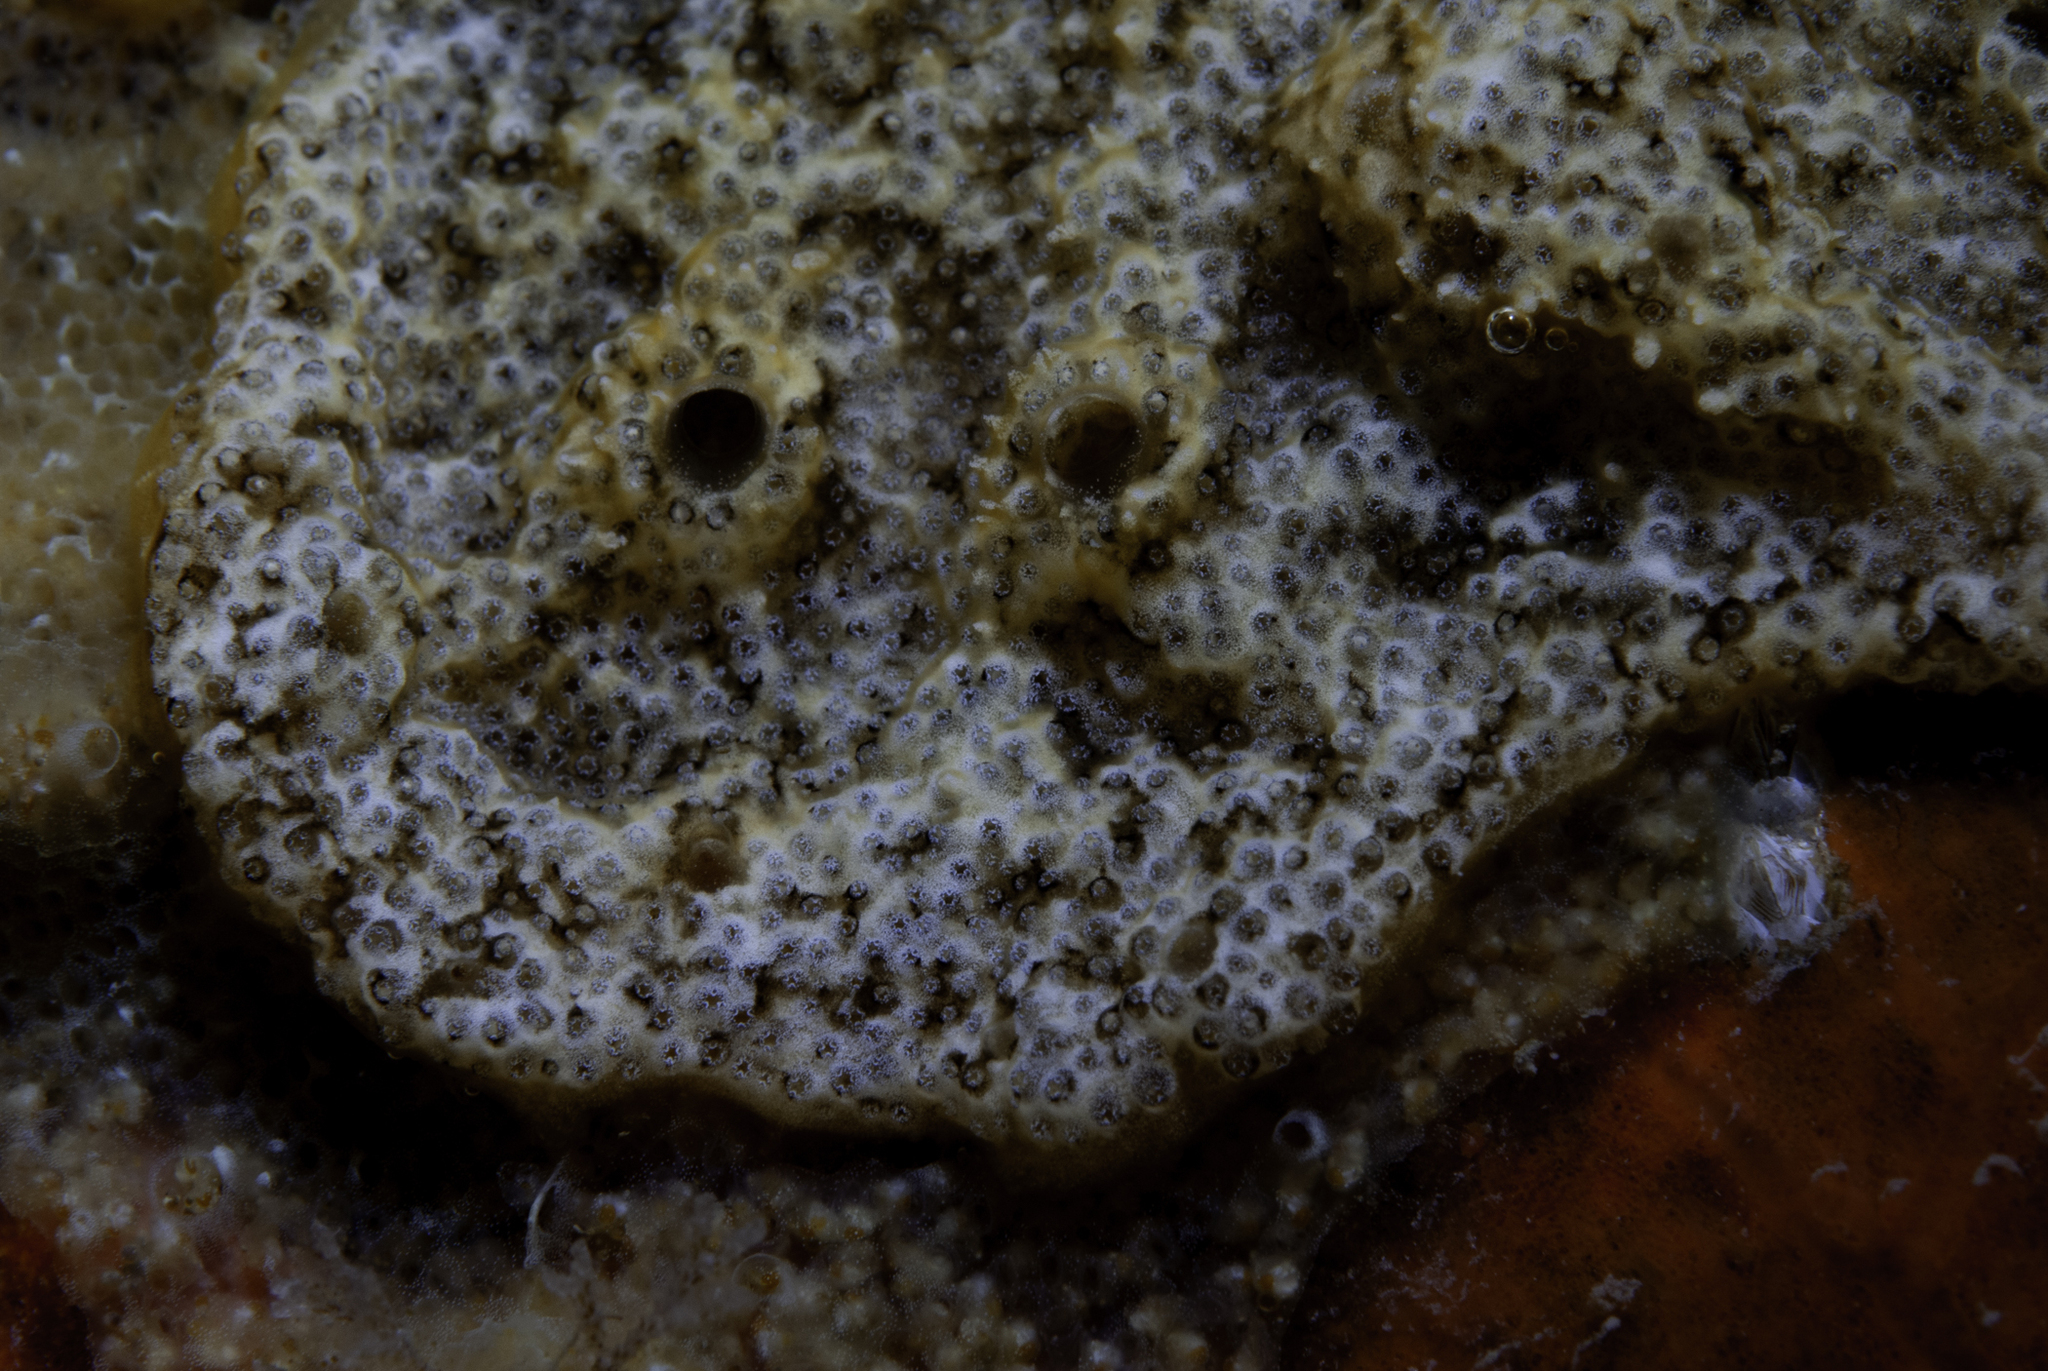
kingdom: Animalia
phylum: Chordata
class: Ascidiacea
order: Aplousobranchia
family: Didemnidae
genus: Trididemnum
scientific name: Trididemnum cereum
